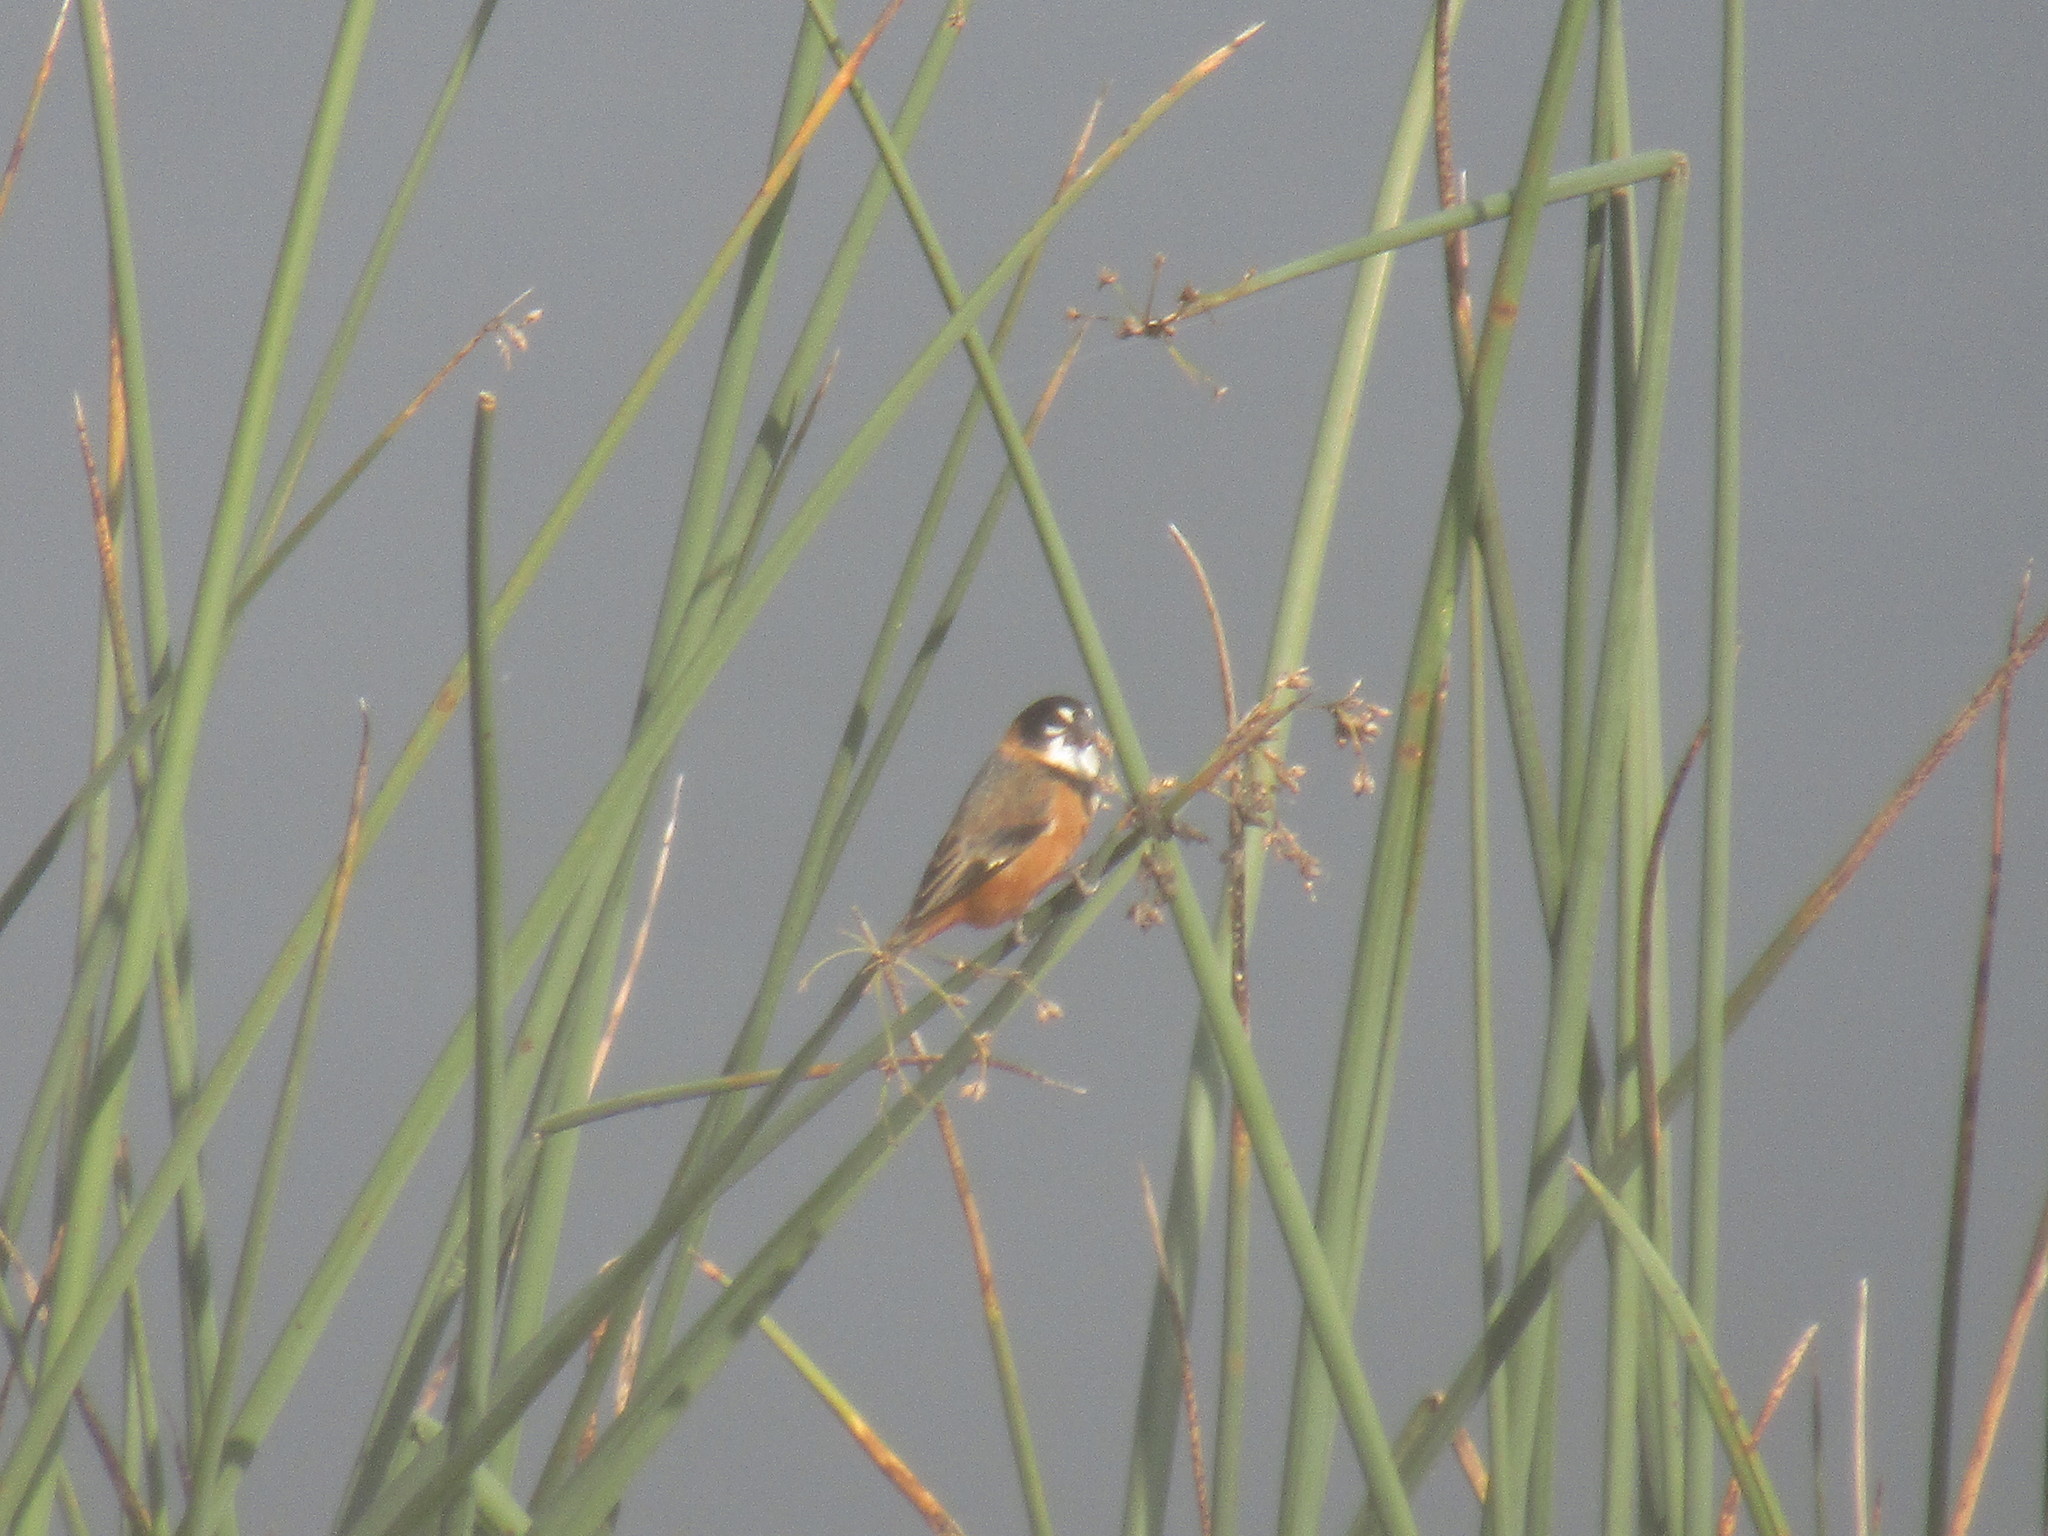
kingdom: Animalia
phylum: Chordata
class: Aves
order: Passeriformes
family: Thraupidae
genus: Sporophila
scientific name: Sporophila collaris
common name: Rusty-collared seedeater
